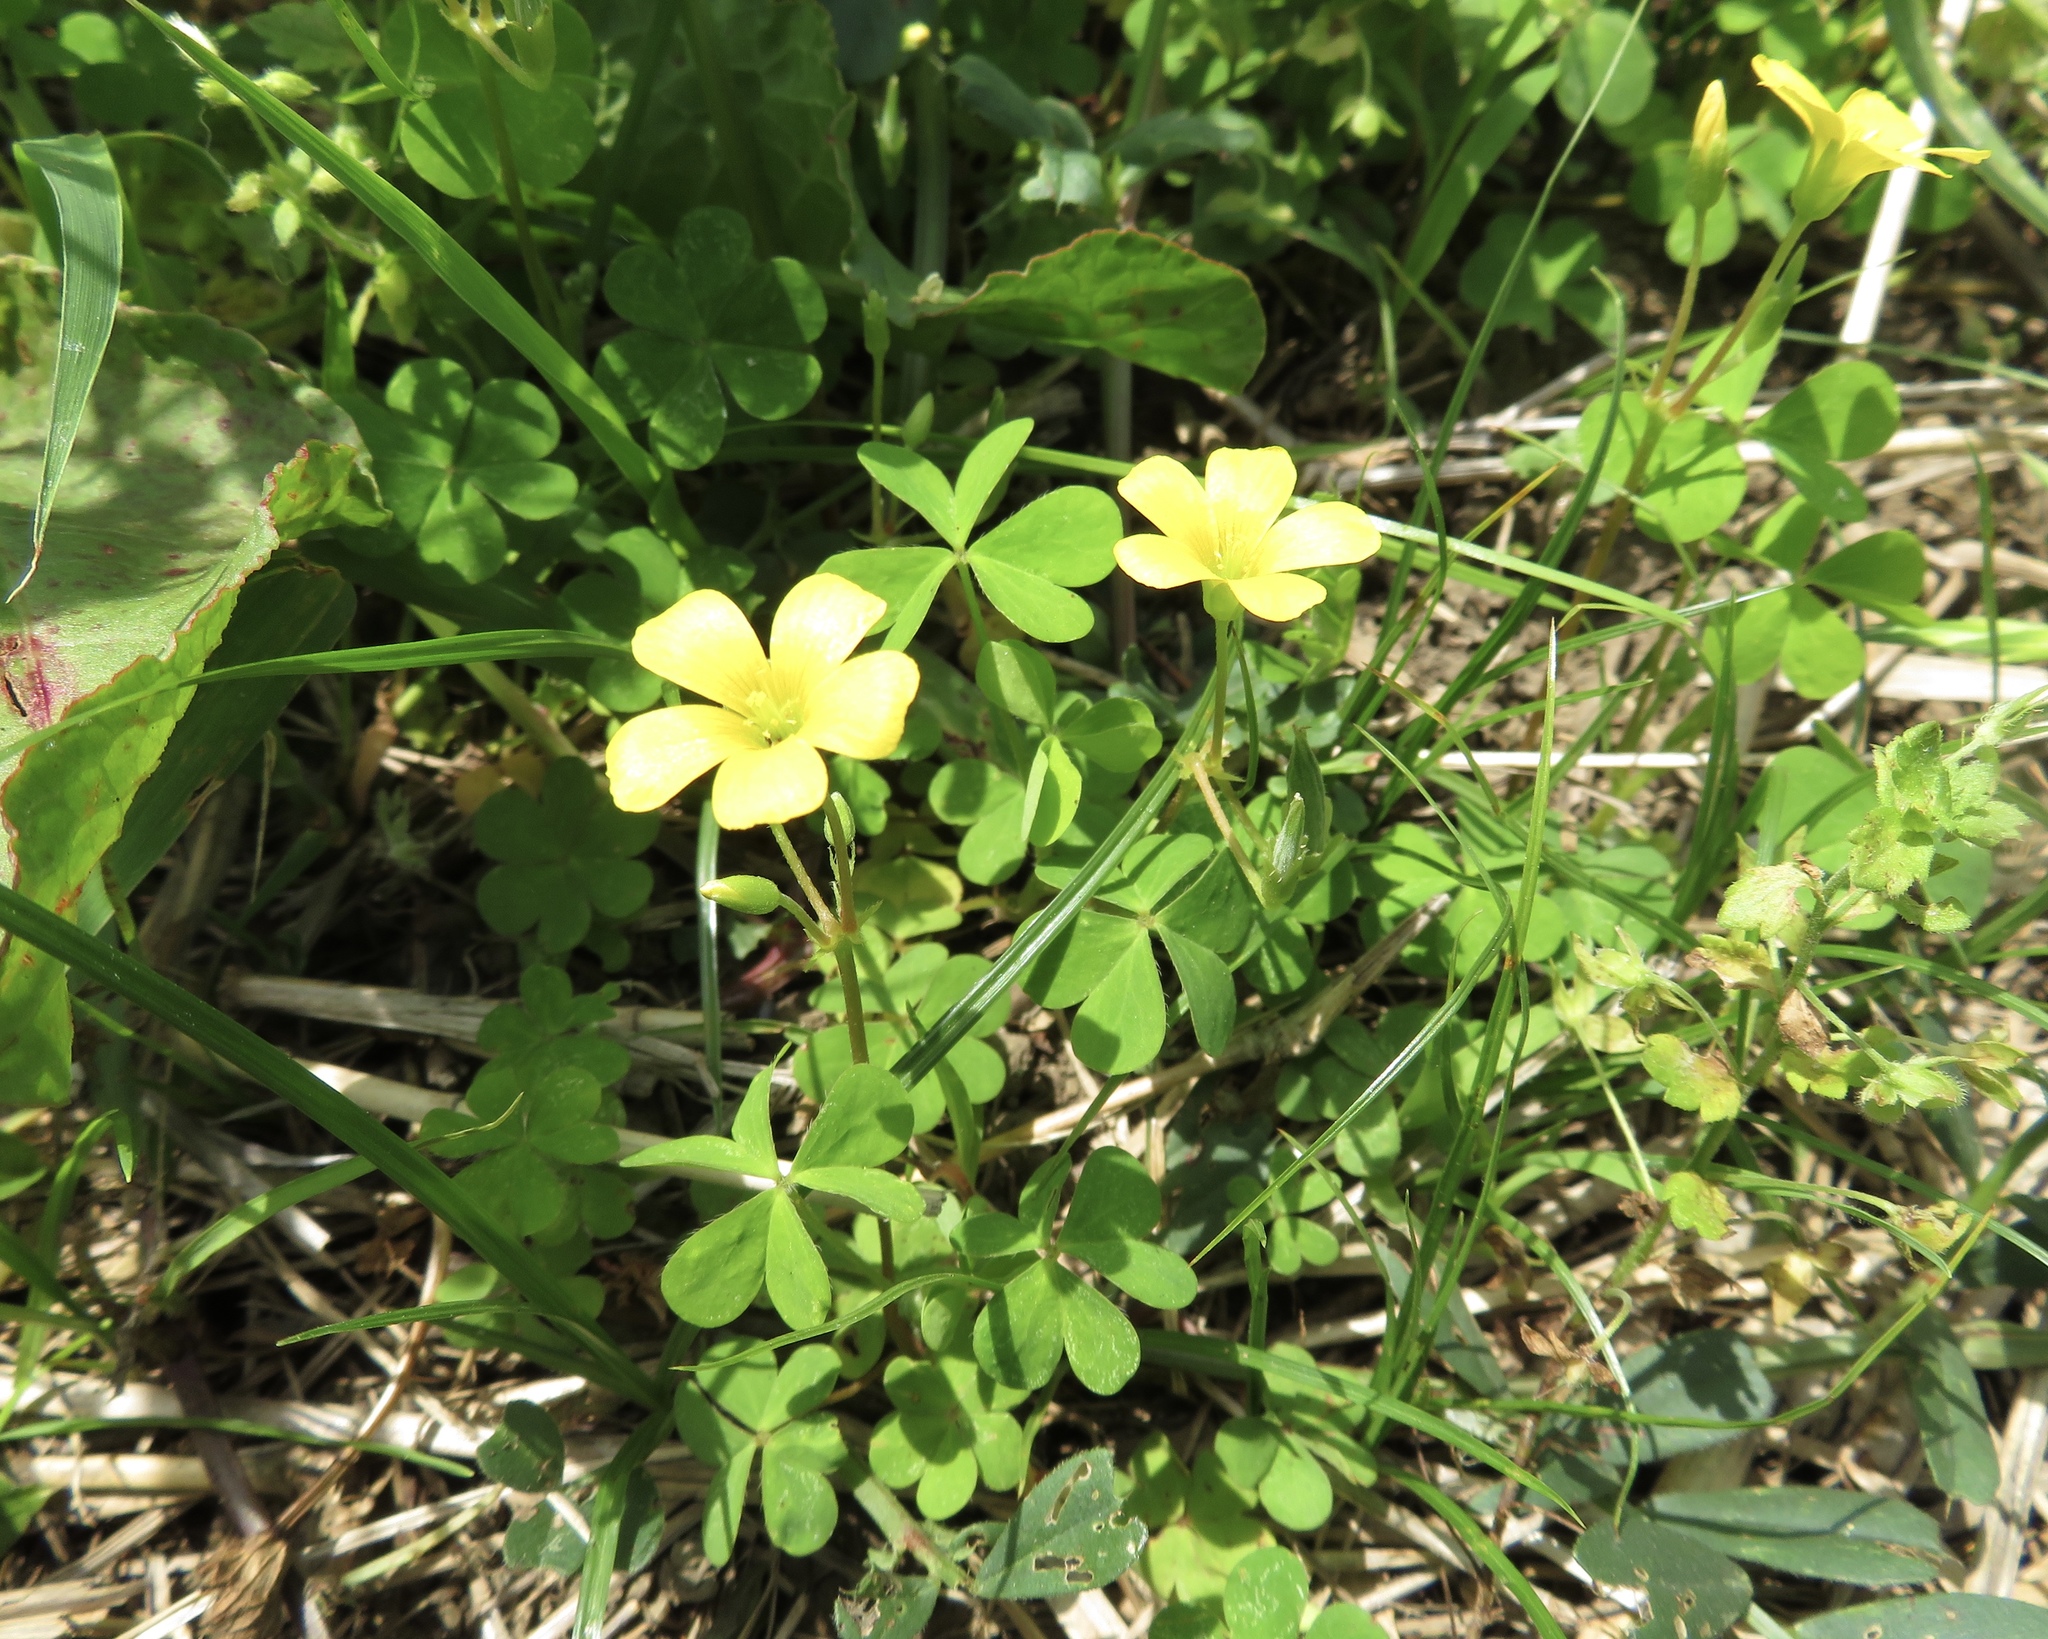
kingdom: Plantae
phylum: Tracheophyta
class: Magnoliopsida
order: Oxalidales
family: Oxalidaceae
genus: Oxalis
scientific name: Oxalis corniculata
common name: Procumbent yellow-sorrel
